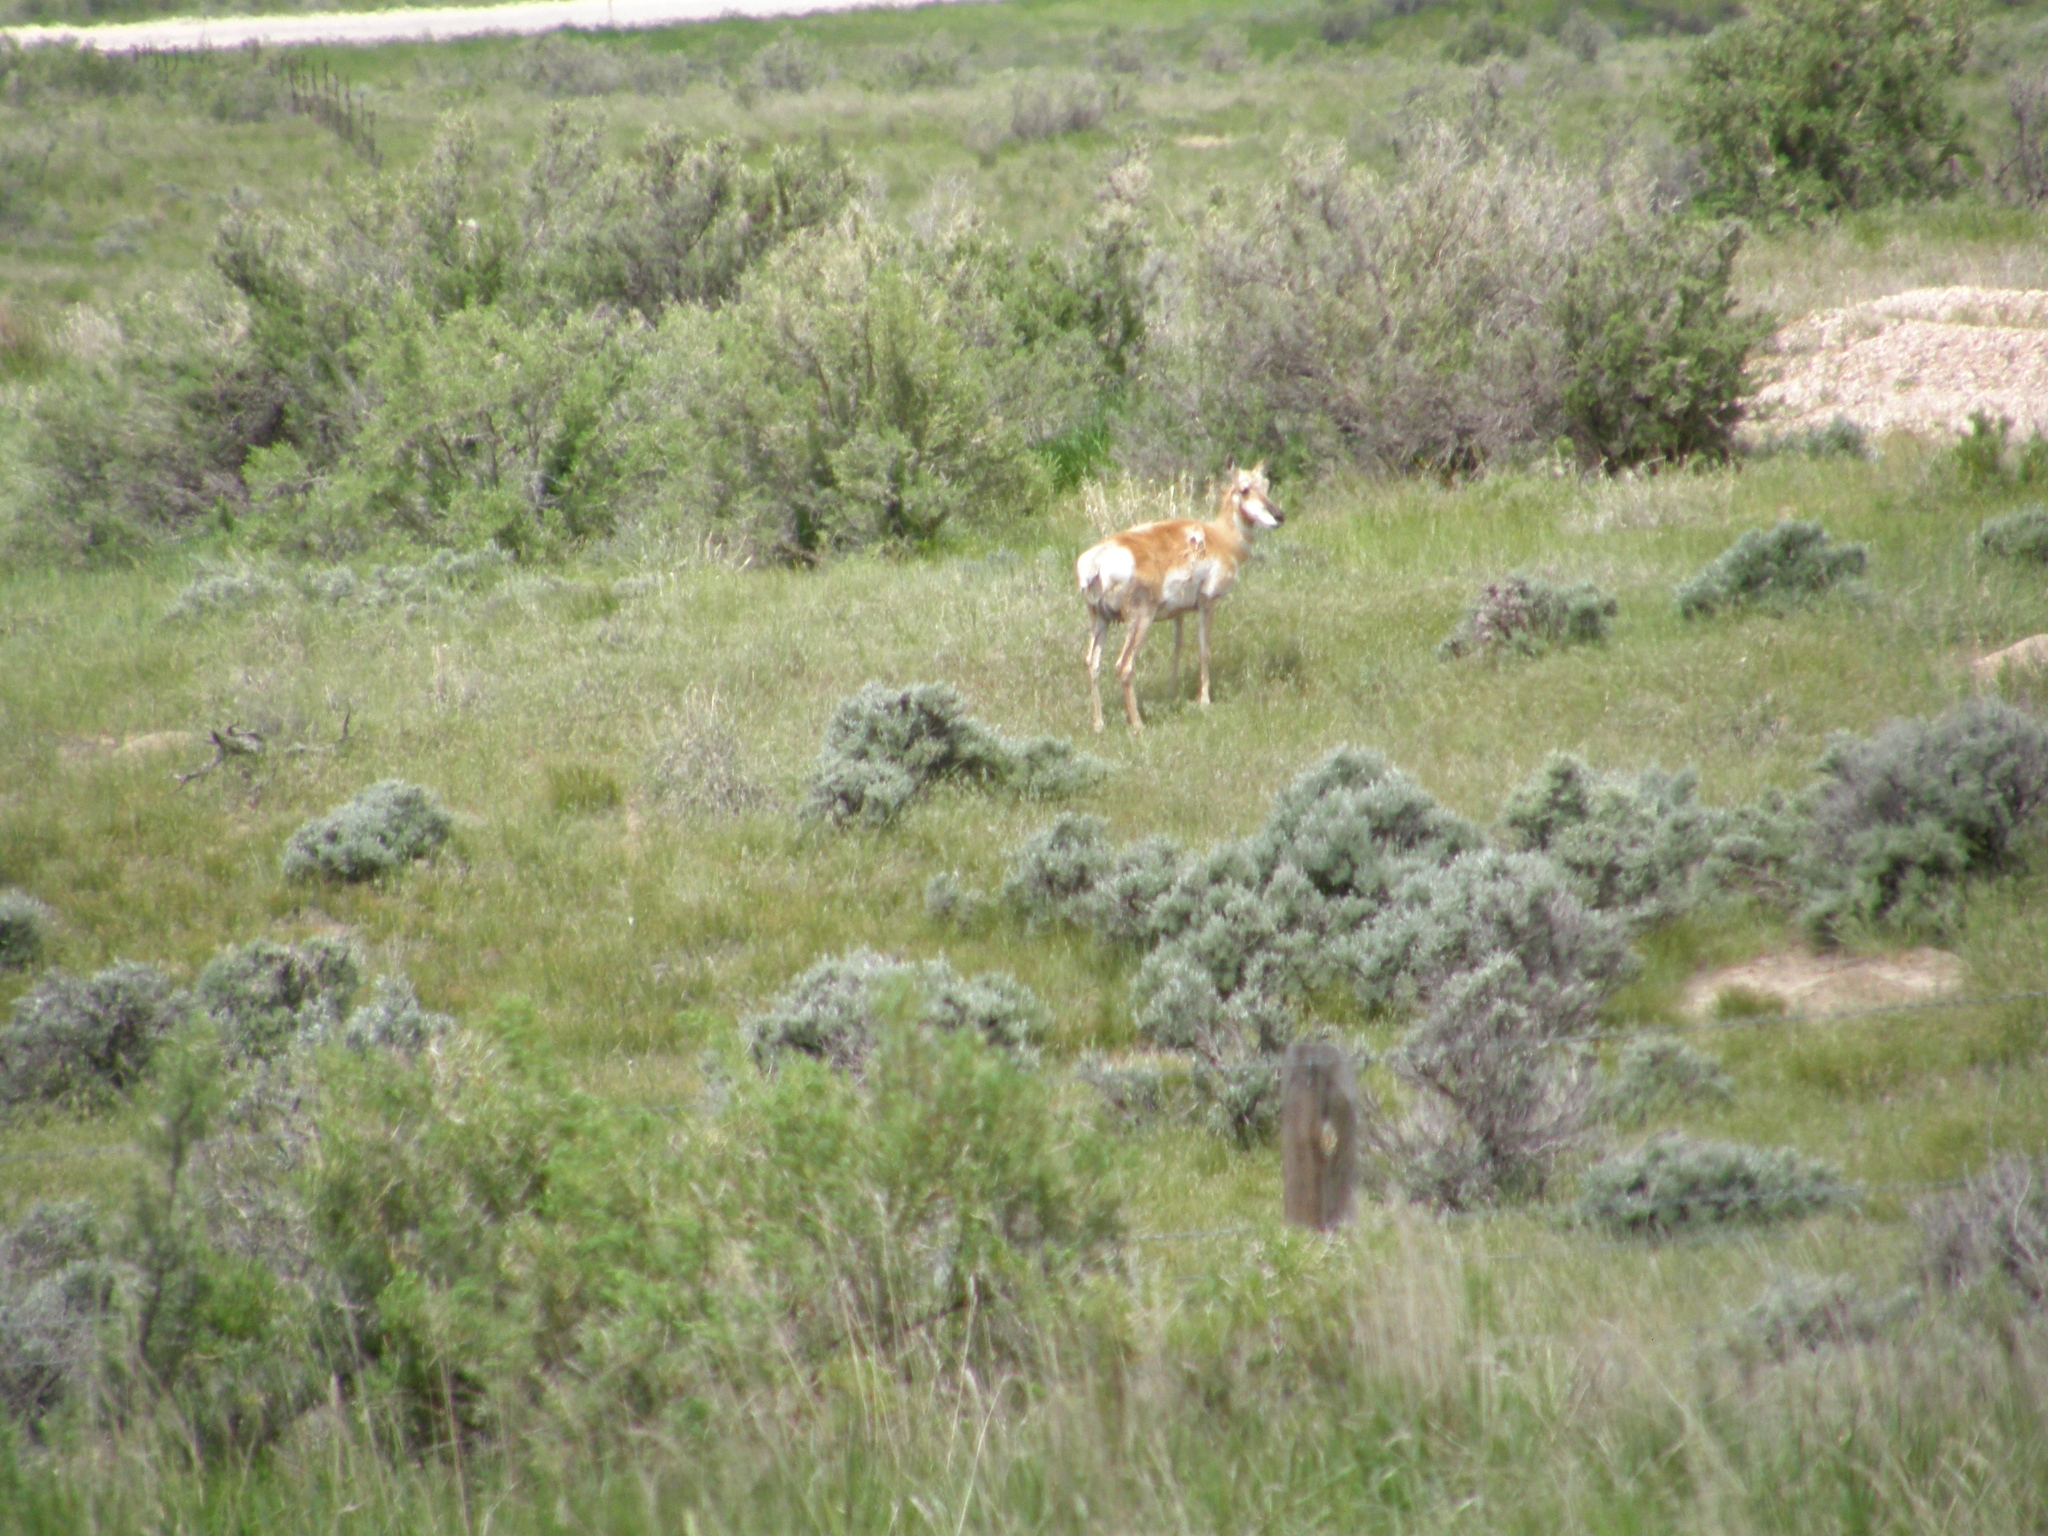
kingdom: Animalia
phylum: Chordata
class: Mammalia
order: Artiodactyla
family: Antilocapridae
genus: Antilocapra
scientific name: Antilocapra americana
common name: Pronghorn
